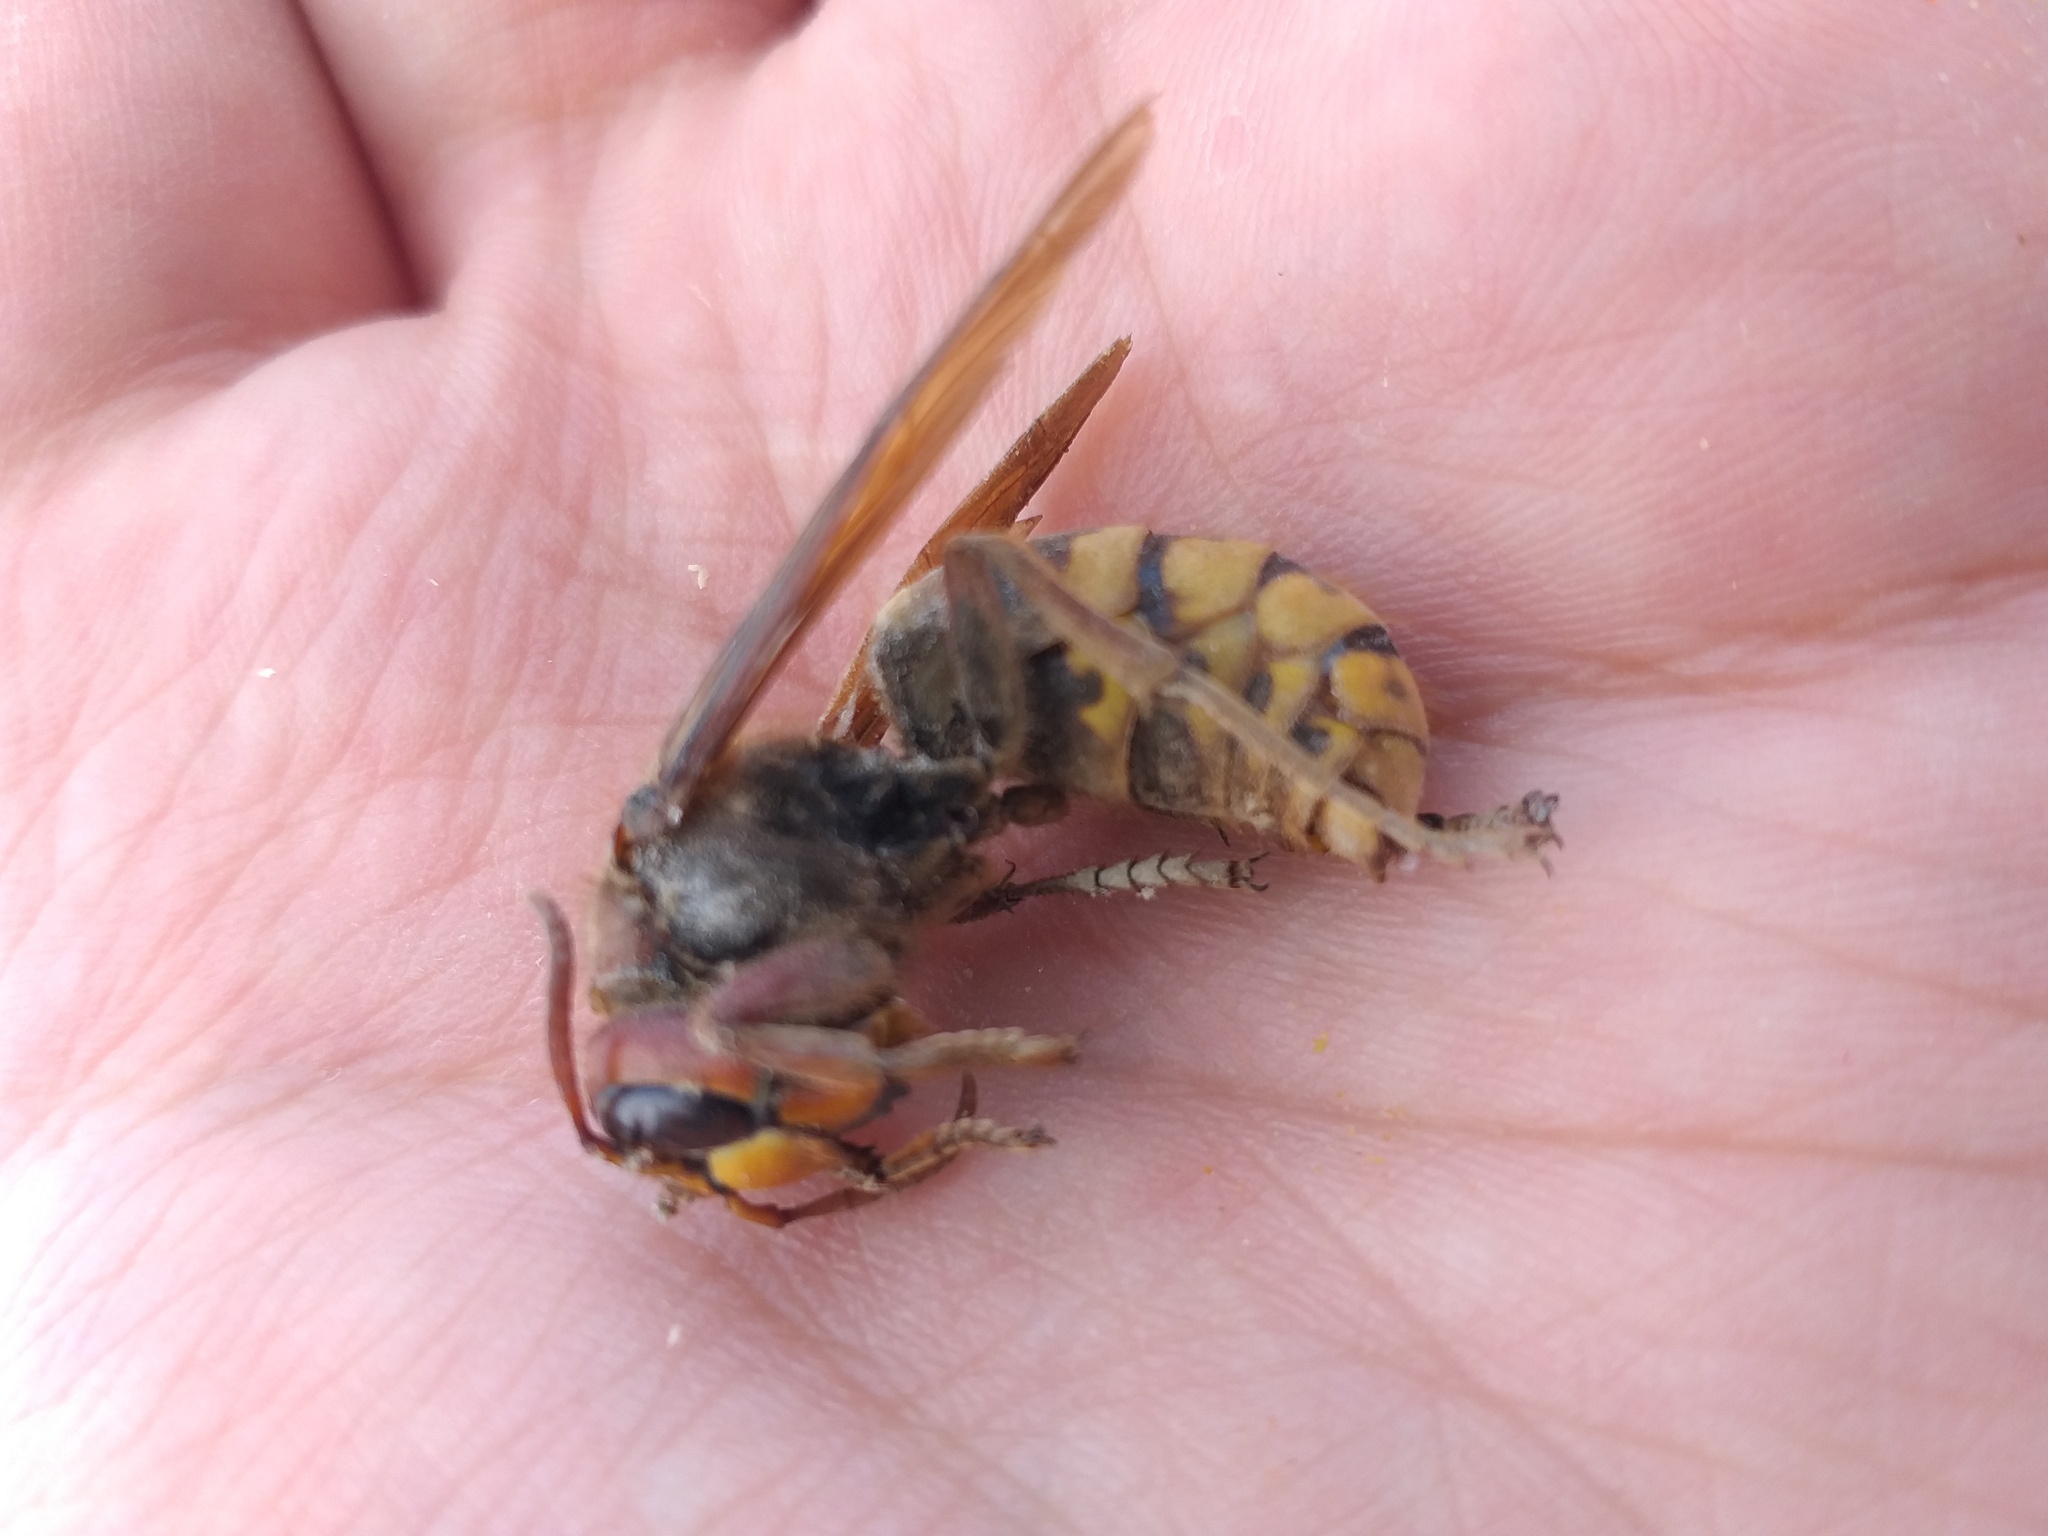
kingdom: Animalia
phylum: Arthropoda
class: Insecta
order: Hymenoptera
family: Vespidae
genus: Vespa
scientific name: Vespa crabro
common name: Hornet
